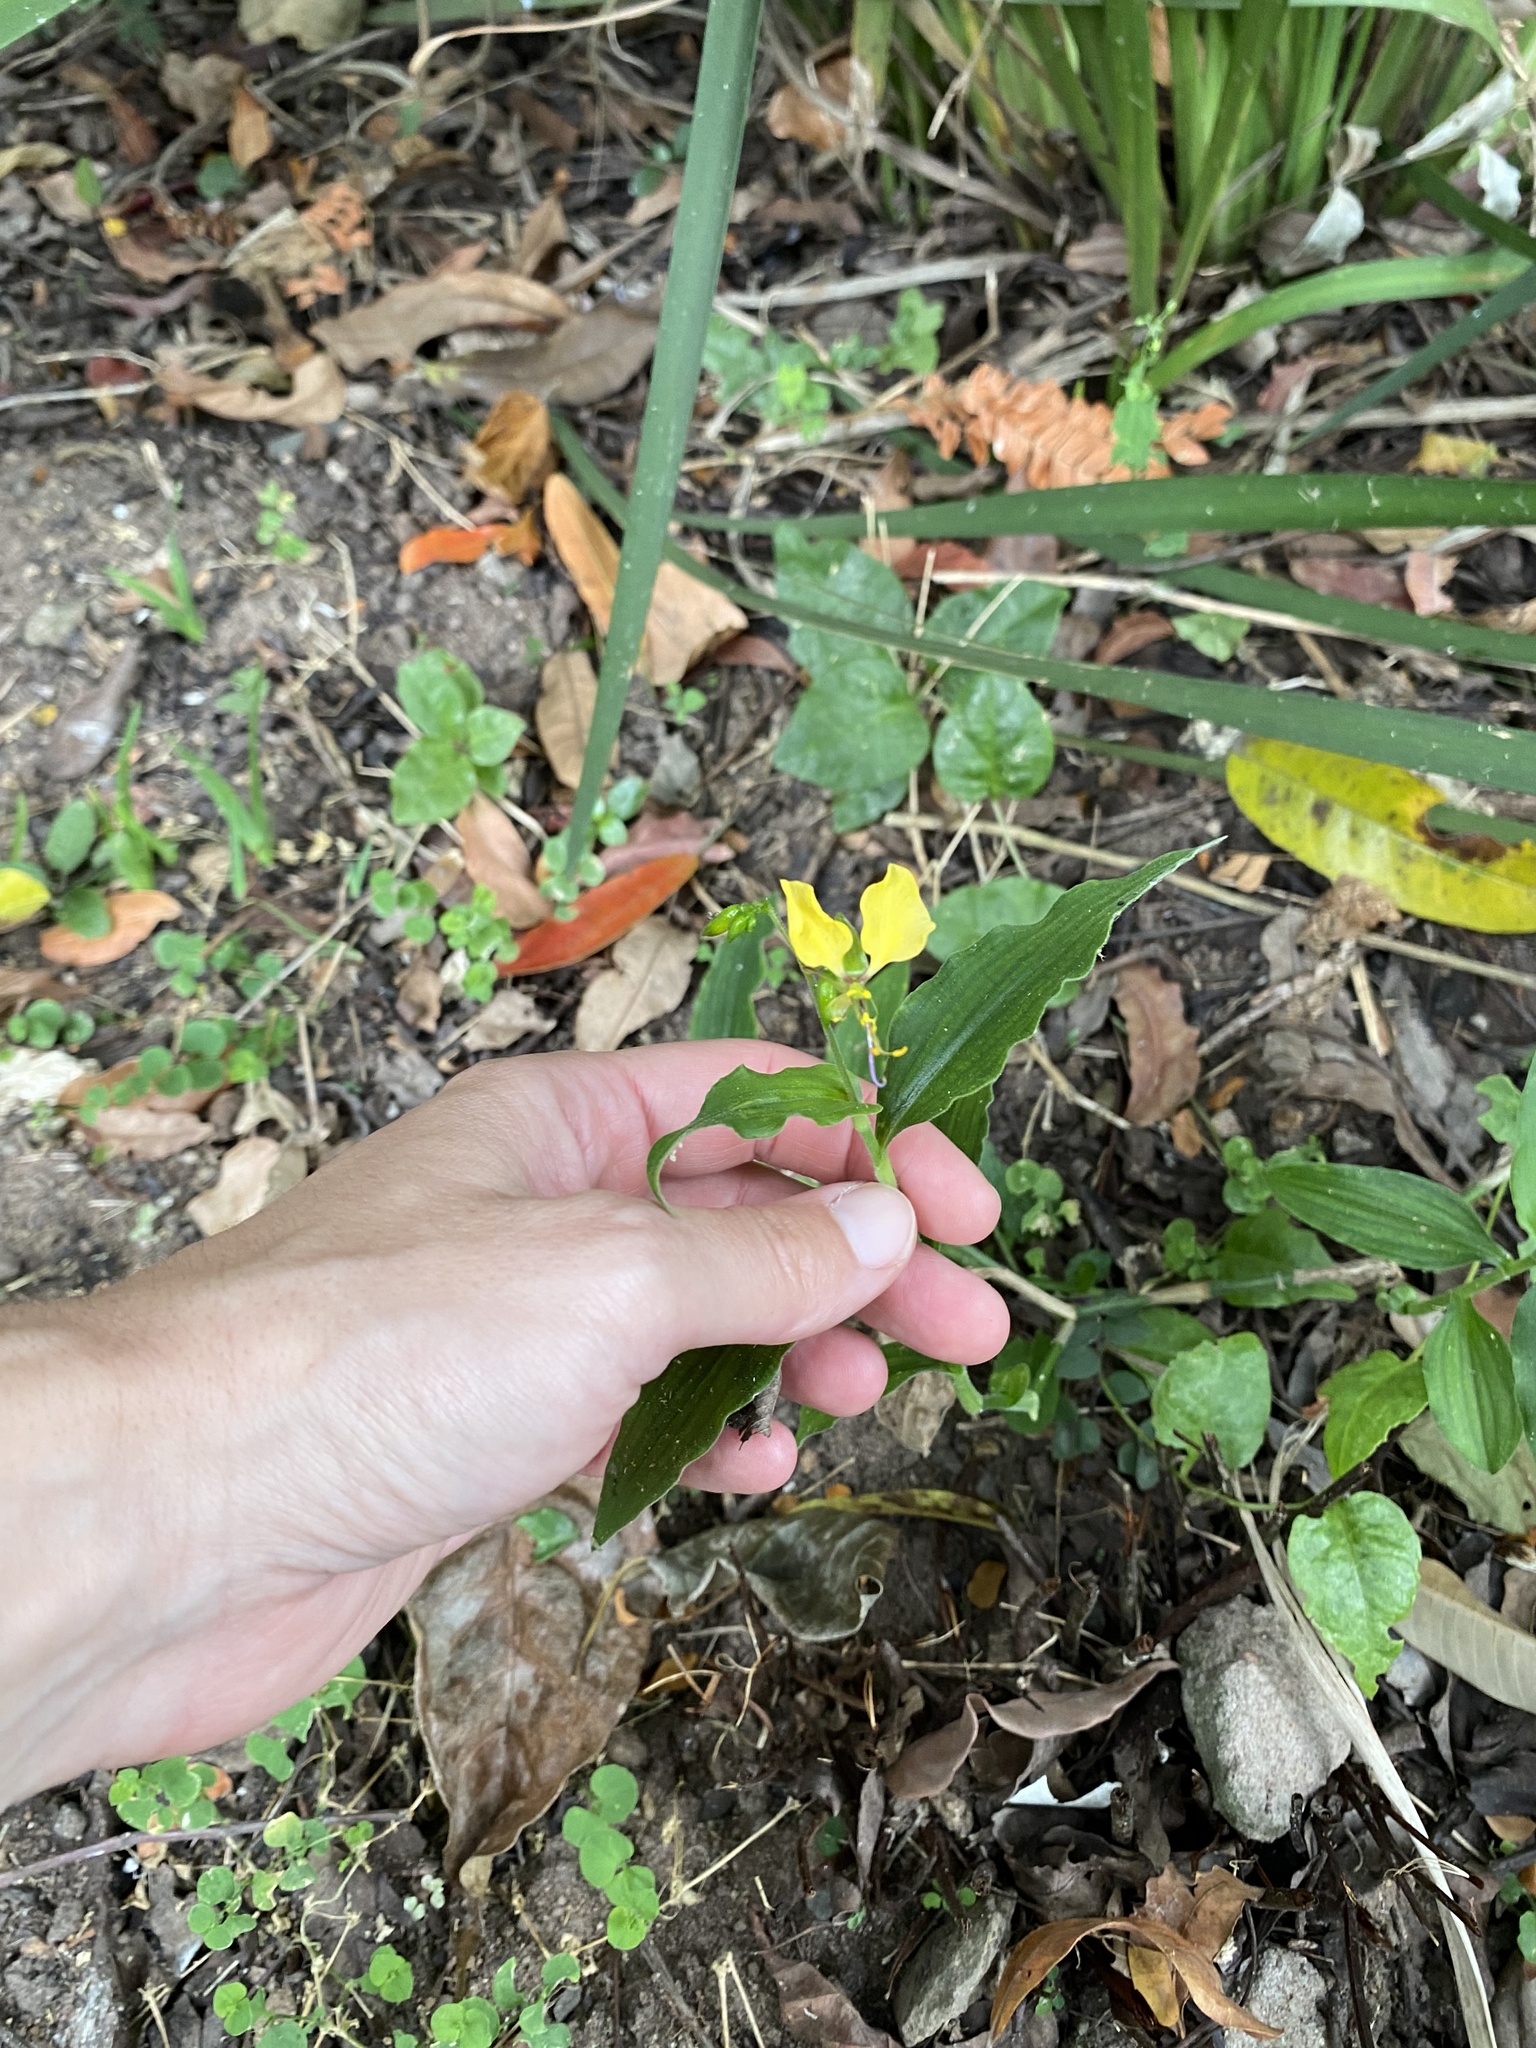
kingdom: Plantae
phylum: Tracheophyta
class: Liliopsida
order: Commelinales
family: Commelinaceae
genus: Aneilema
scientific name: Aneilema aequinoctiale
